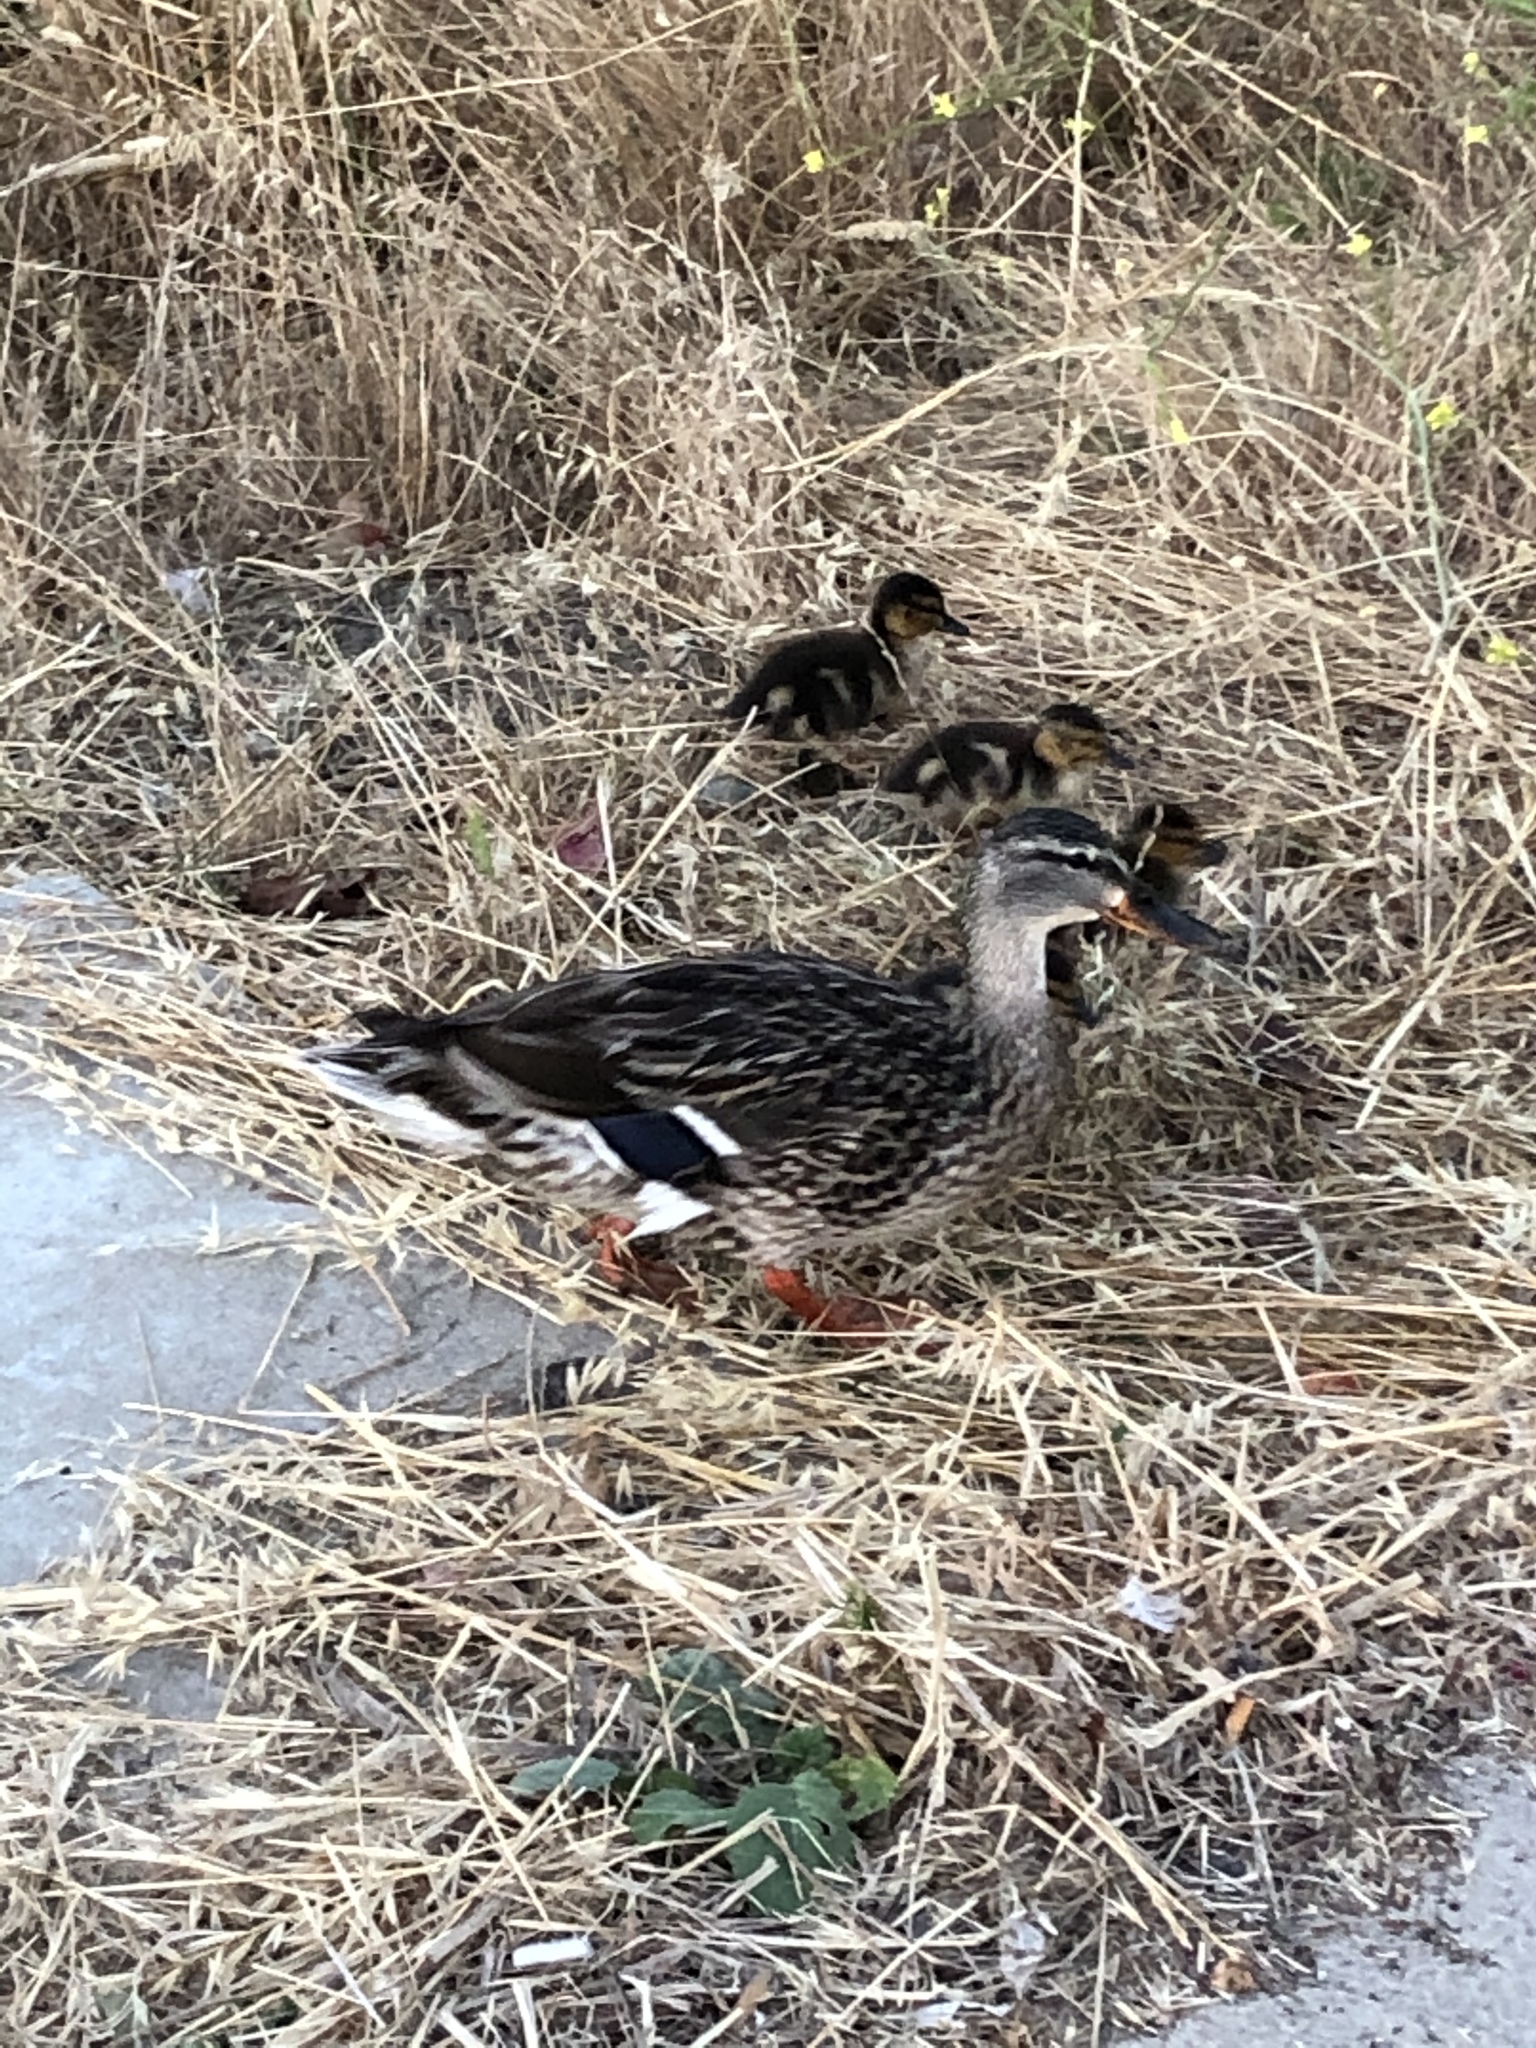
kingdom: Animalia
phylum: Chordata
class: Aves
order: Anseriformes
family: Anatidae
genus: Anas
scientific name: Anas platyrhynchos
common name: Mallard
